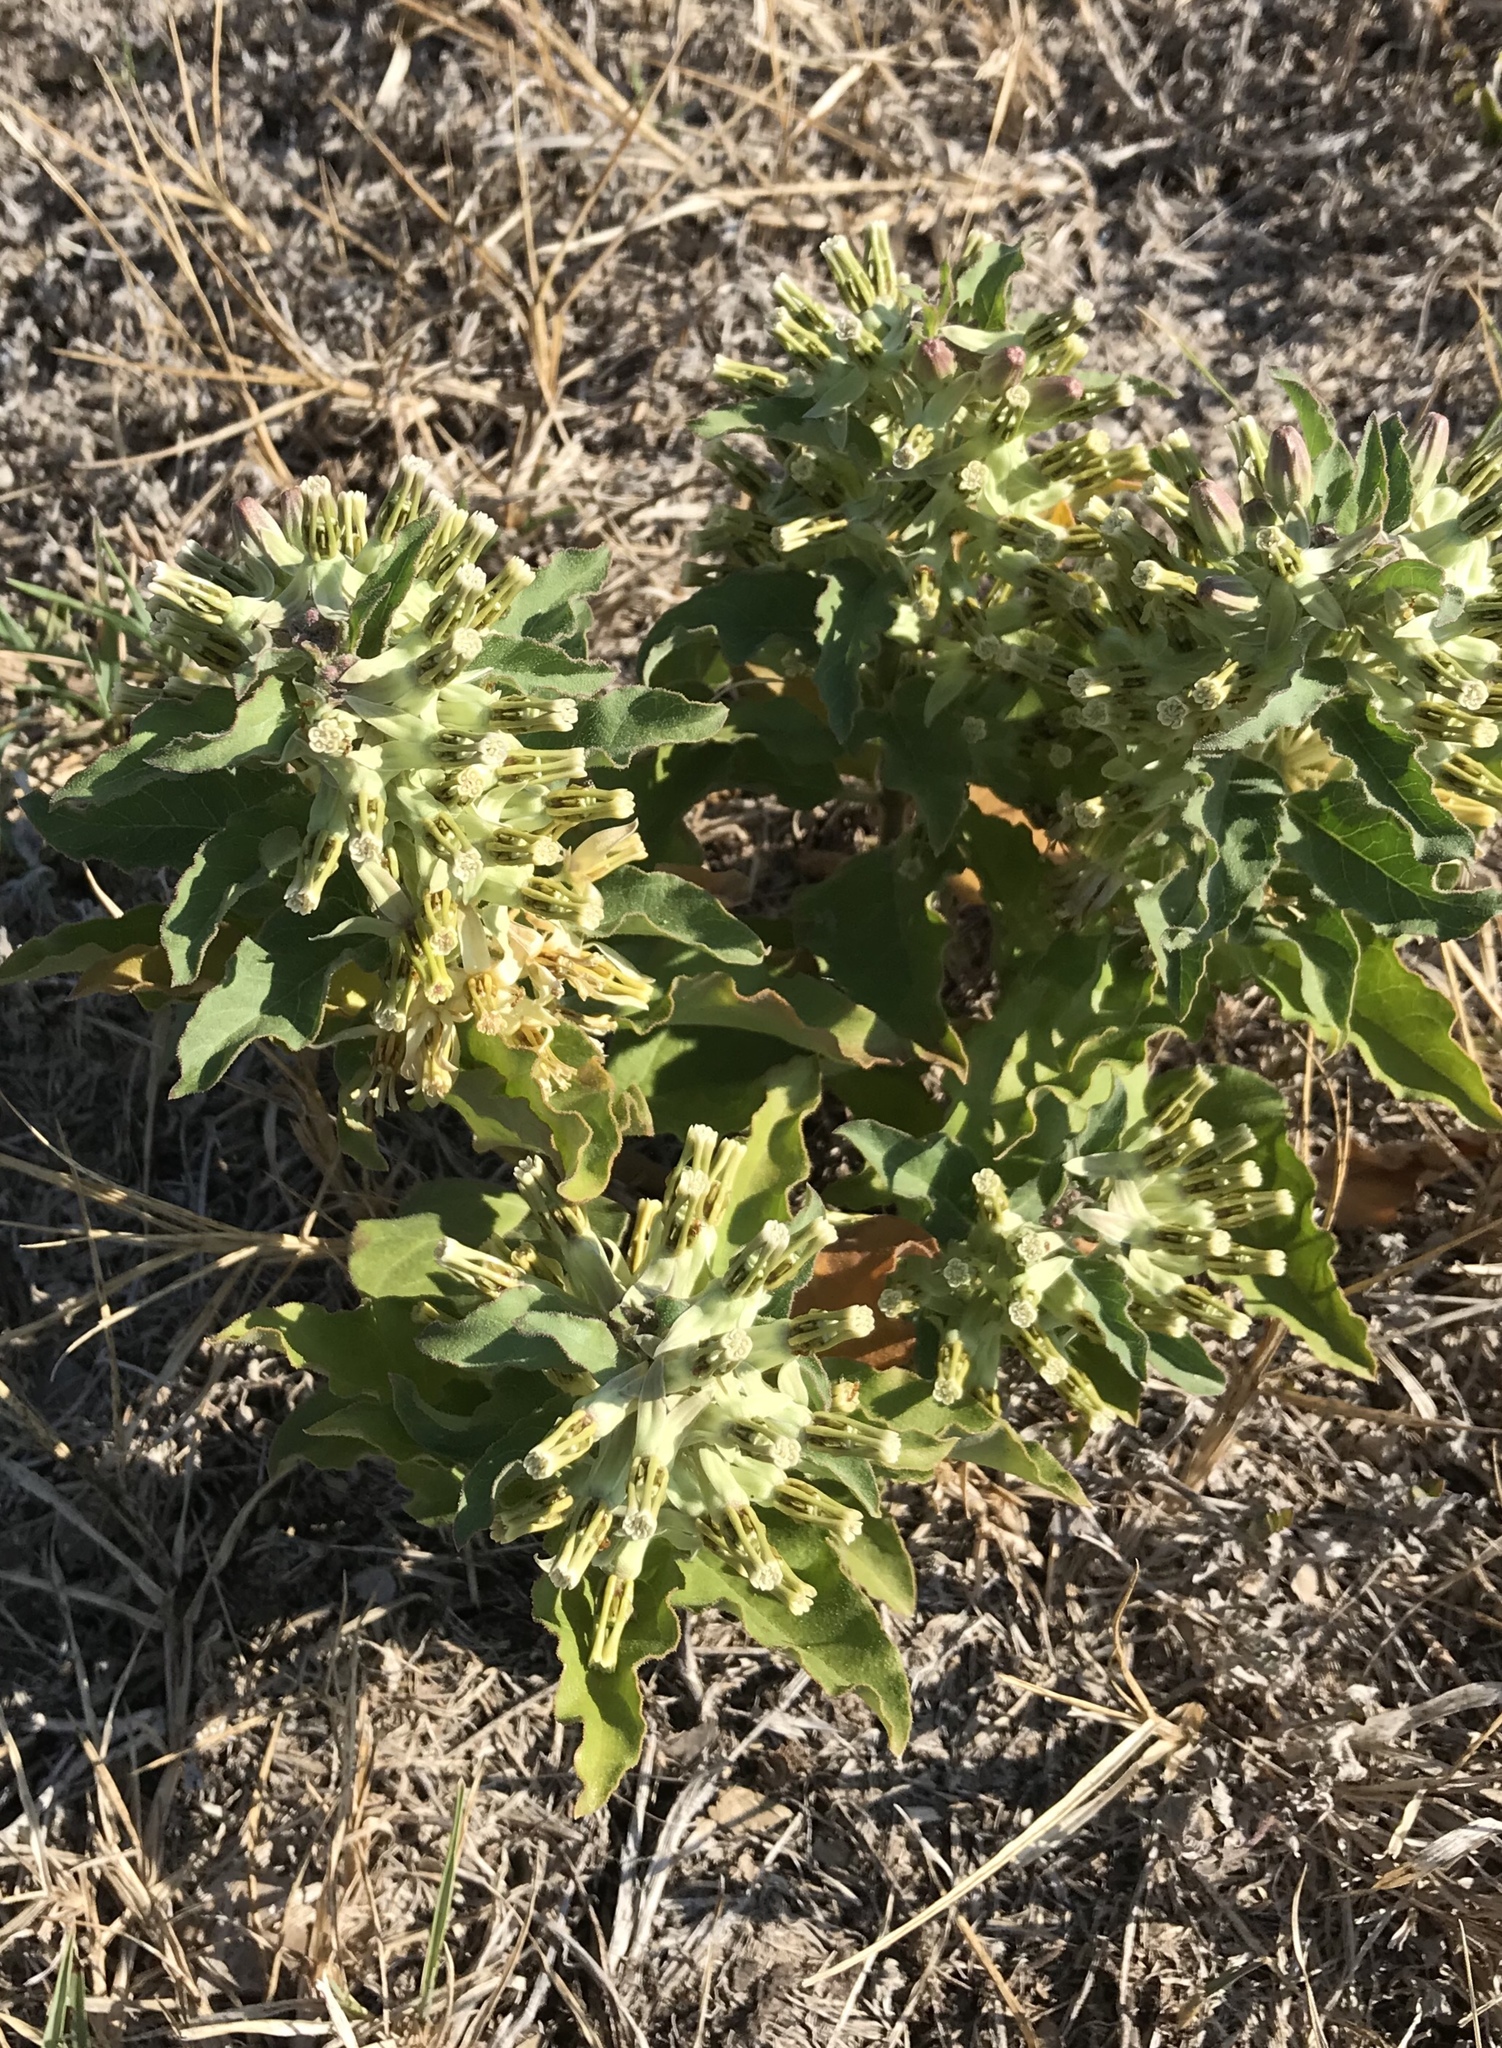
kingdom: Plantae
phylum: Tracheophyta
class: Magnoliopsida
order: Gentianales
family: Apocynaceae
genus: Asclepias
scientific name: Asclepias oenotheroides
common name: Zizotes milkweed
